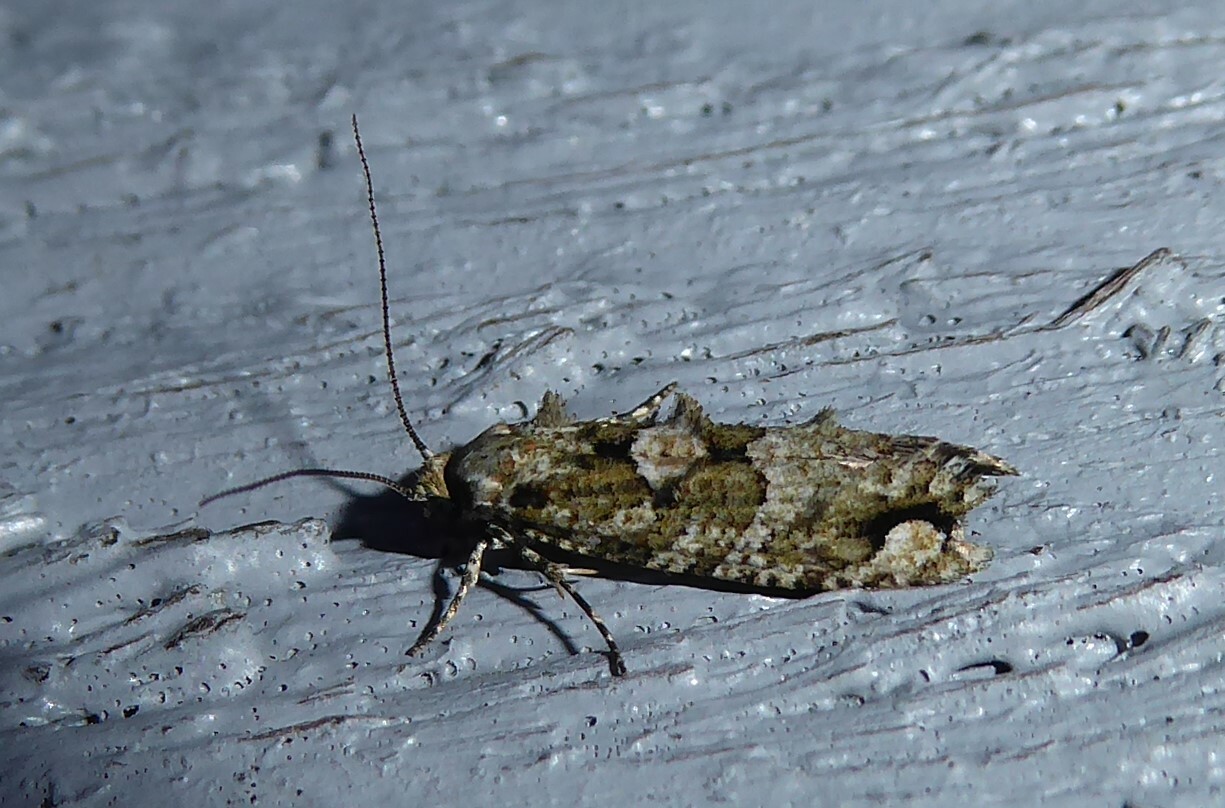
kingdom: Animalia
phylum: Arthropoda
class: Insecta
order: Lepidoptera
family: Tineidae
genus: Lysiphragma
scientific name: Lysiphragma howesii
